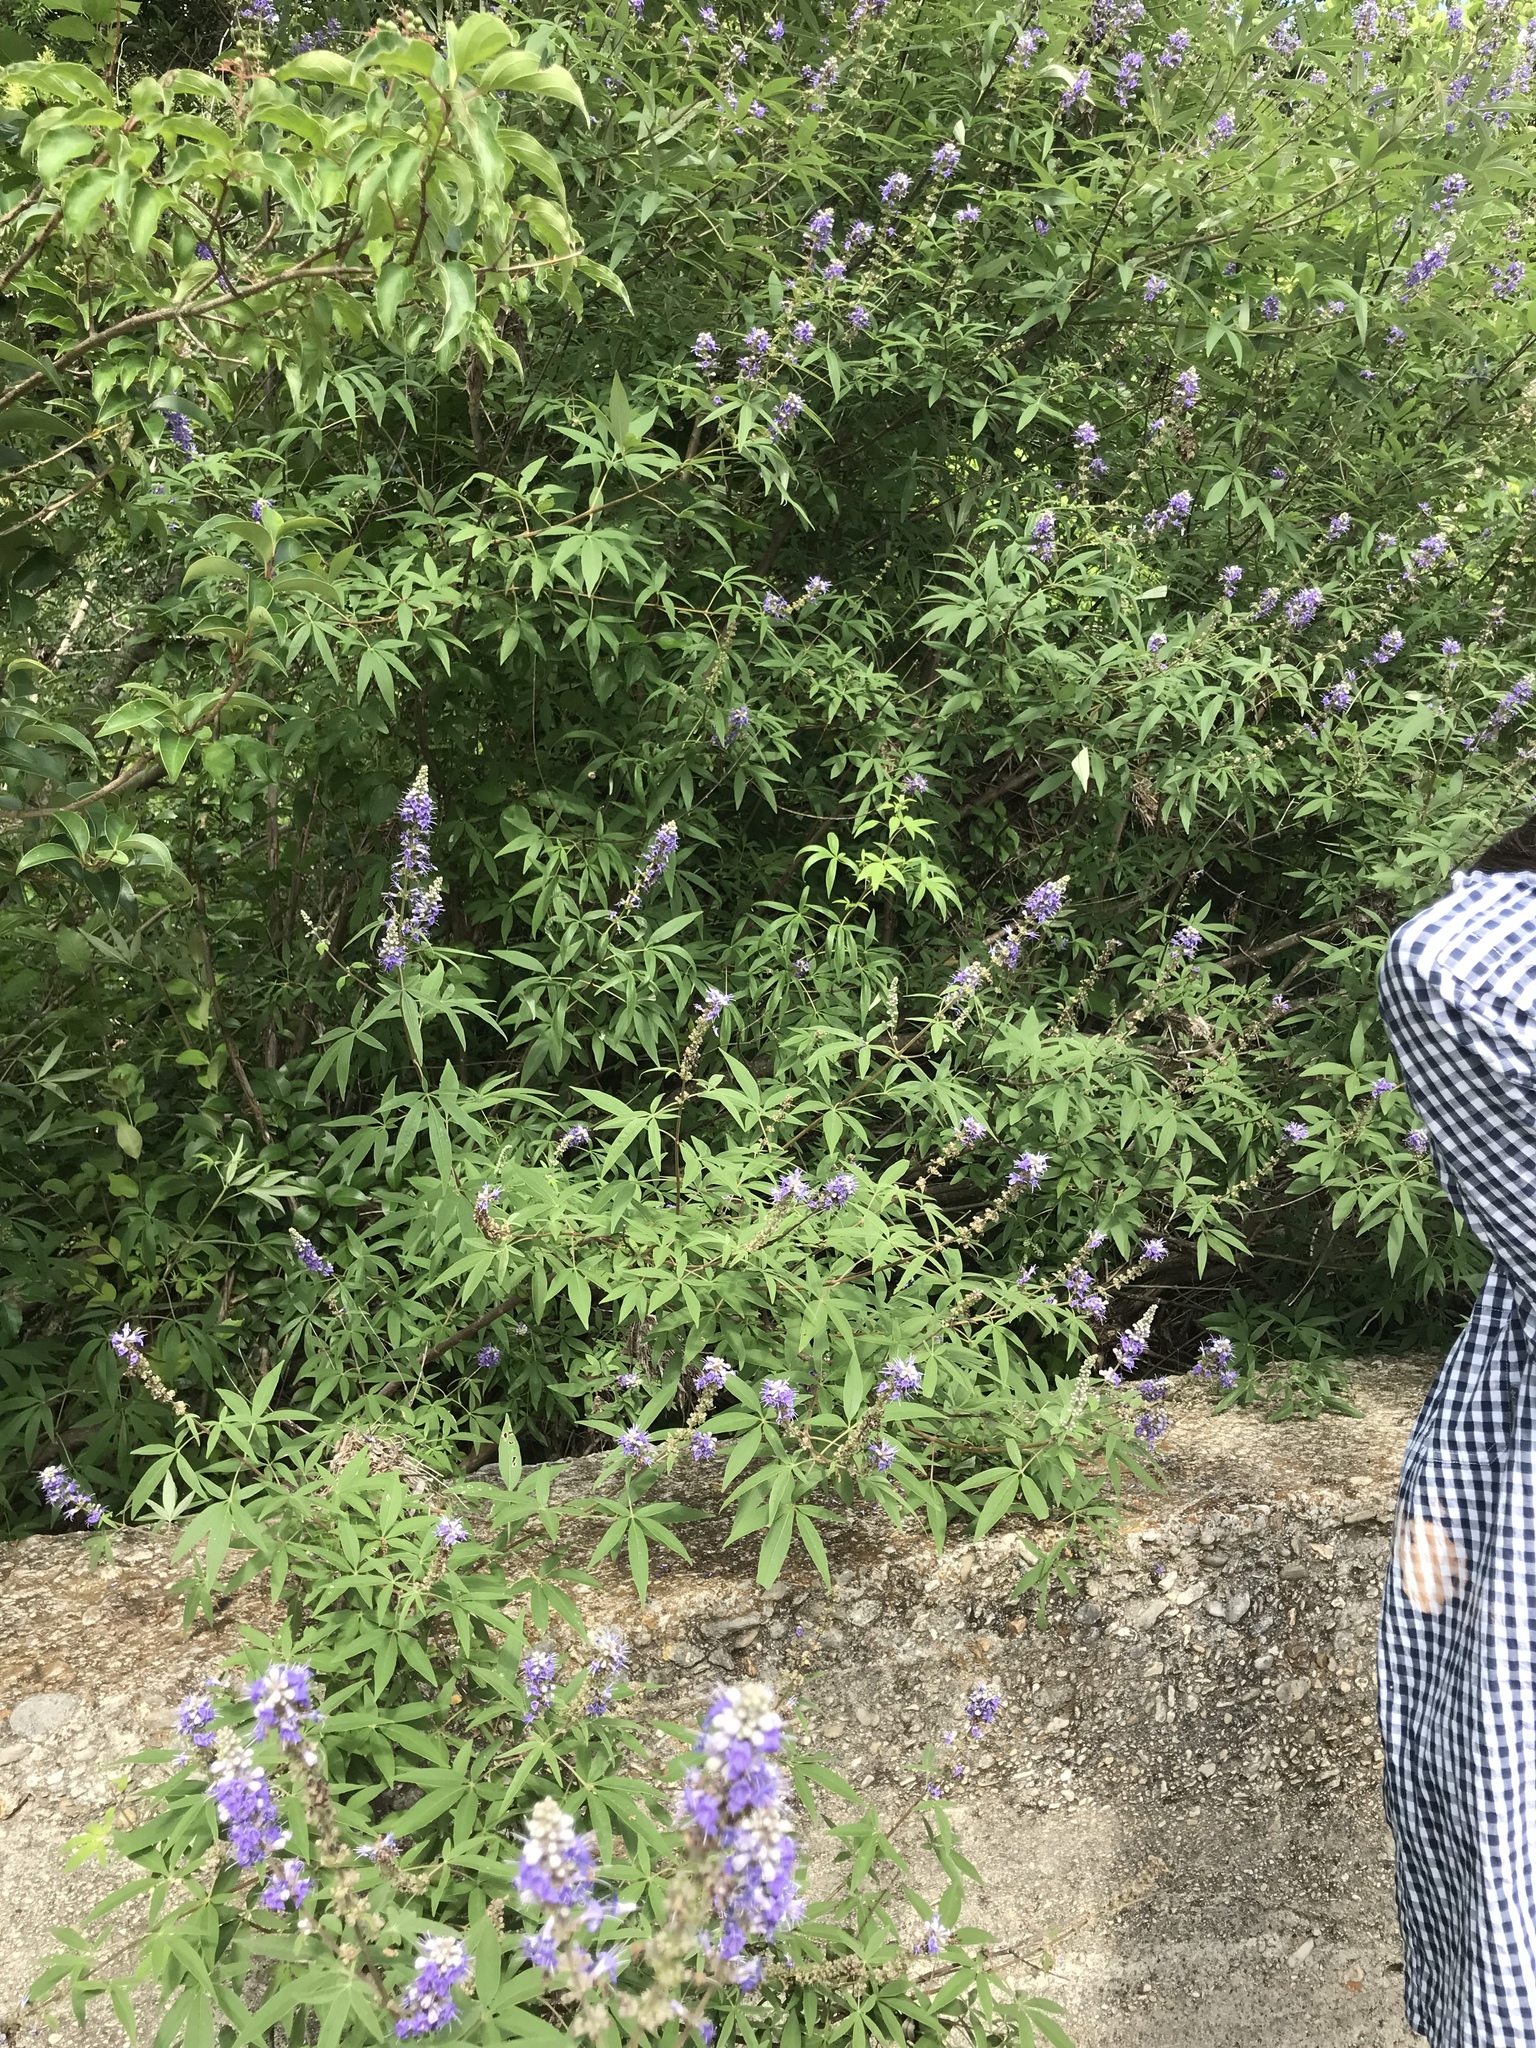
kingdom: Plantae
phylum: Tracheophyta
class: Magnoliopsida
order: Lamiales
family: Lamiaceae
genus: Vitex
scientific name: Vitex agnus-castus
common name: Chasteberry
